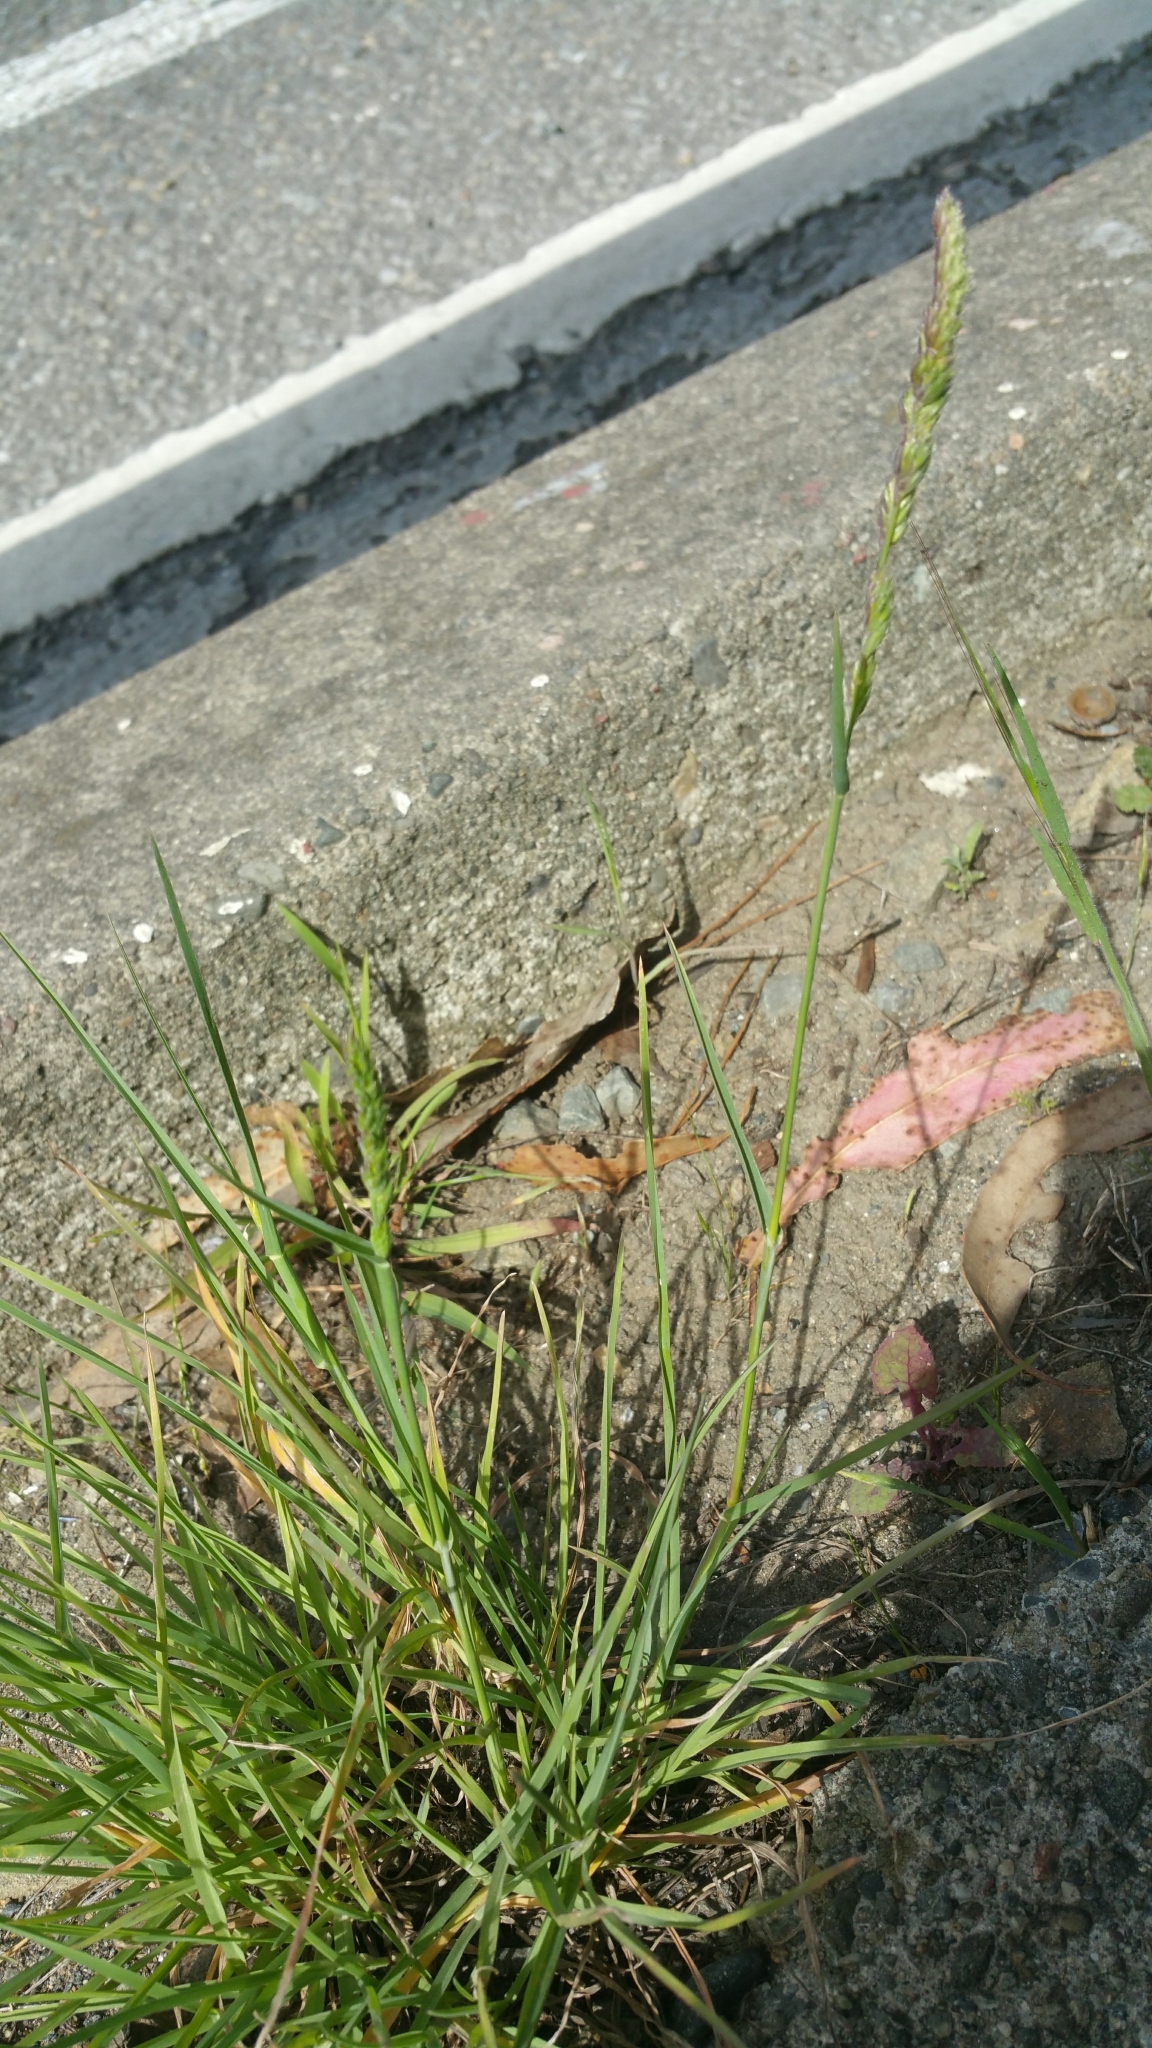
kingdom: Plantae
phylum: Tracheophyta
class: Liliopsida
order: Poales
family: Poaceae
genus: Dactylis
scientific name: Dactylis glomerata
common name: Orchardgrass
